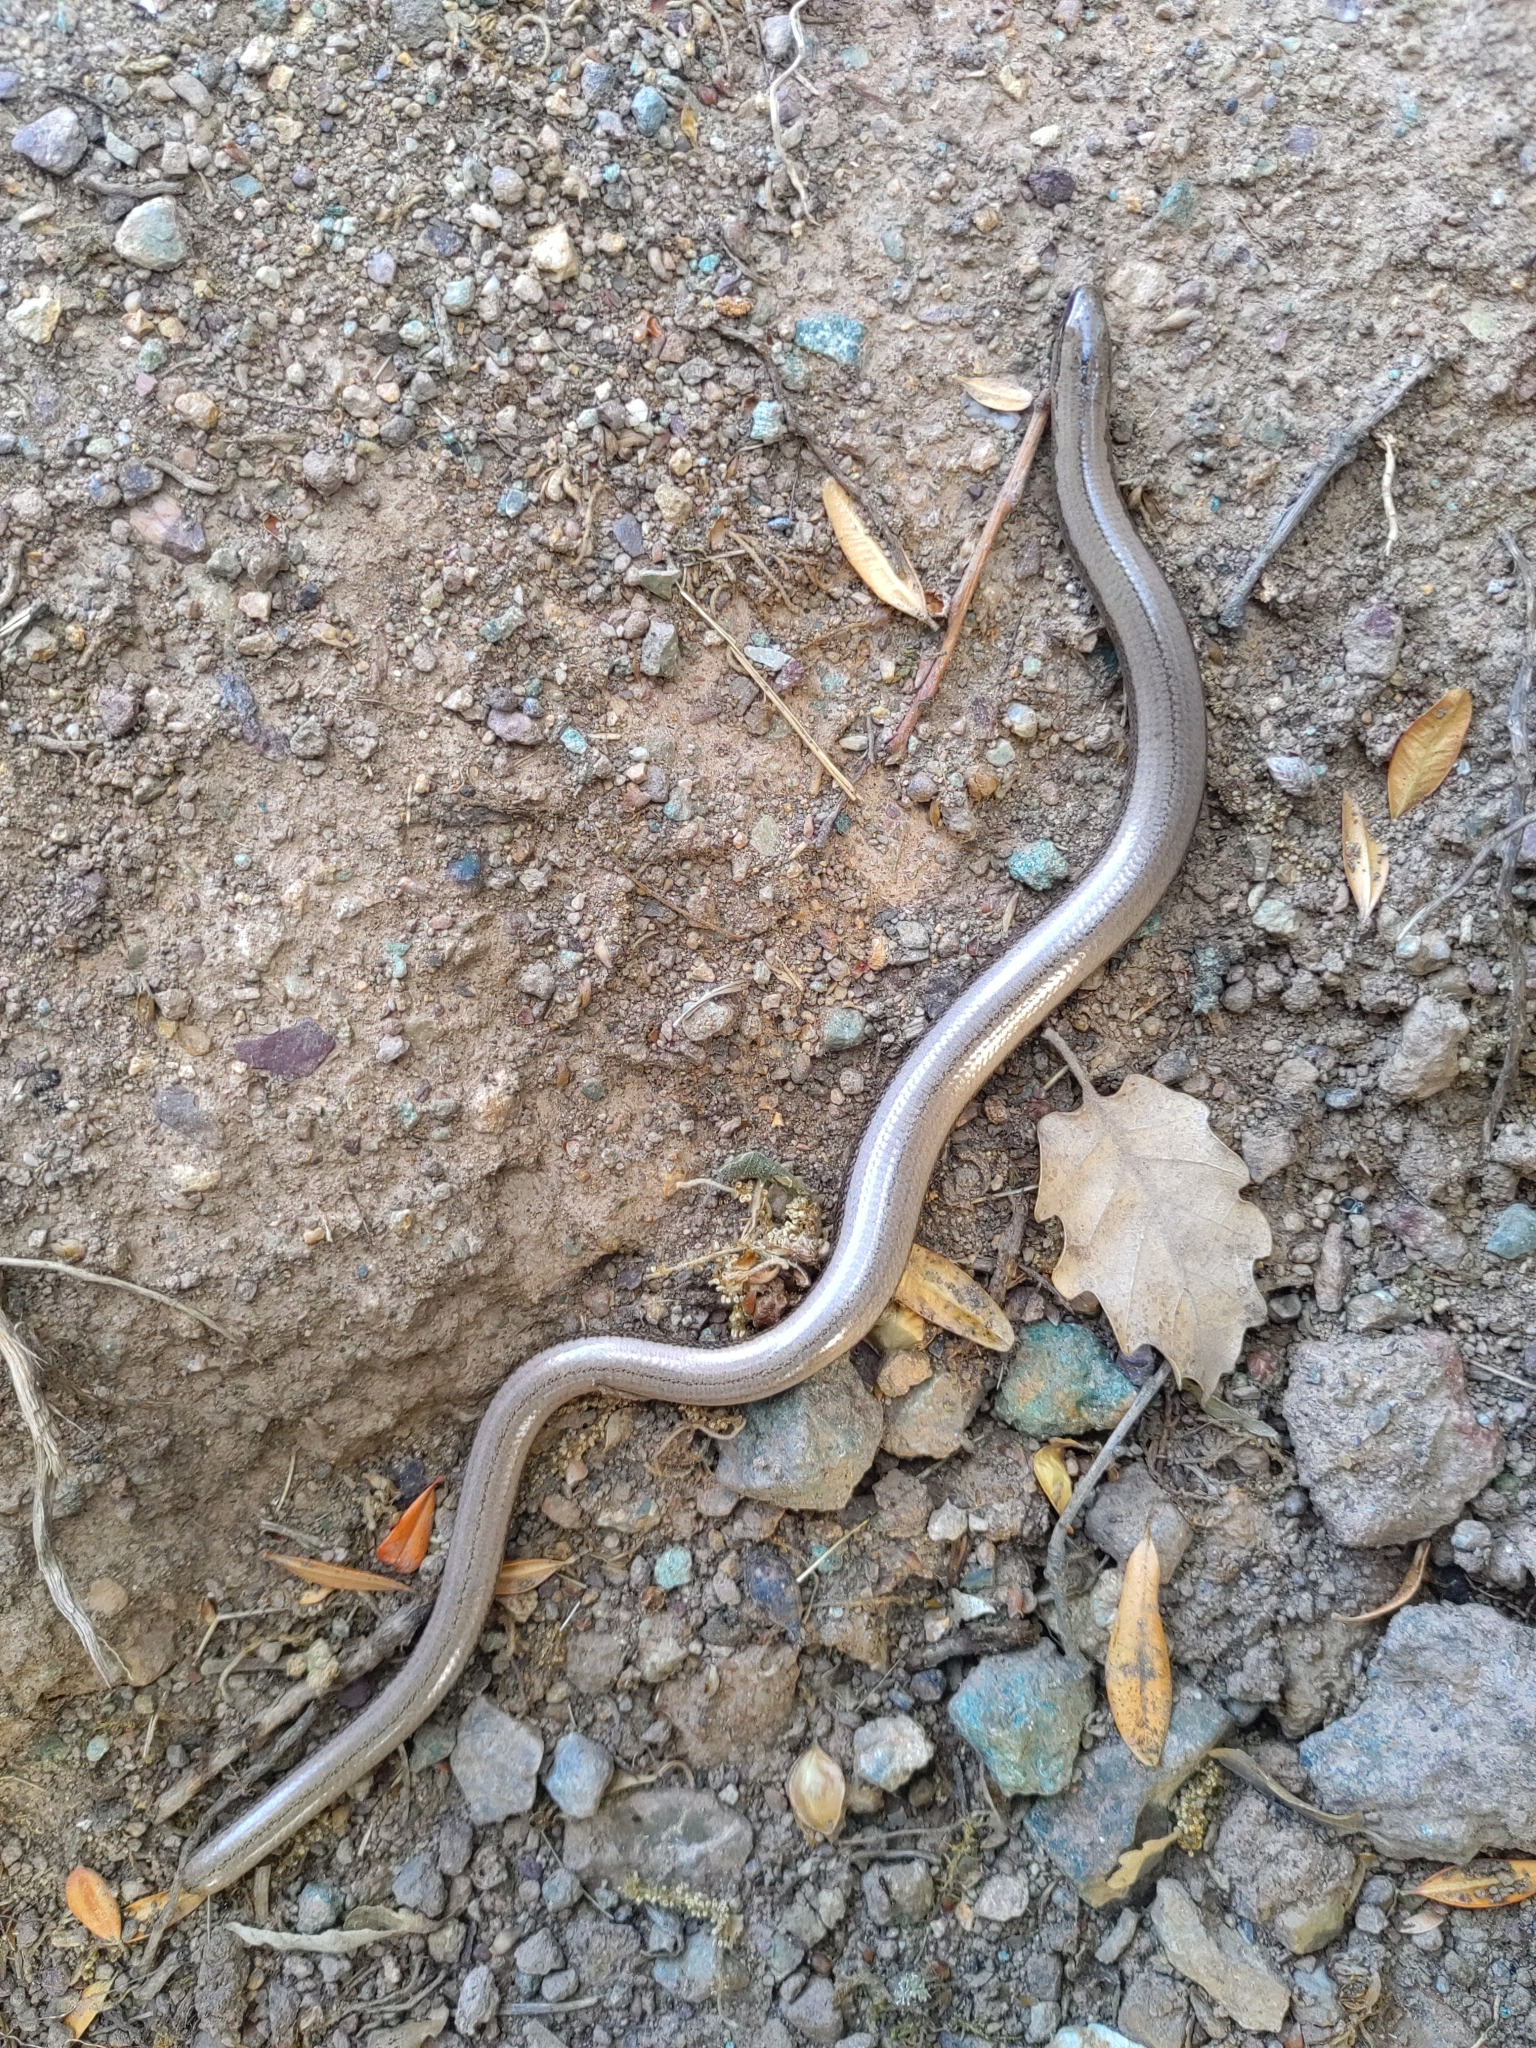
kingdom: Animalia
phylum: Chordata
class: Squamata
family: Anguidae
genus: Anguis
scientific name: Anguis fragilis
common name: Slow worm
